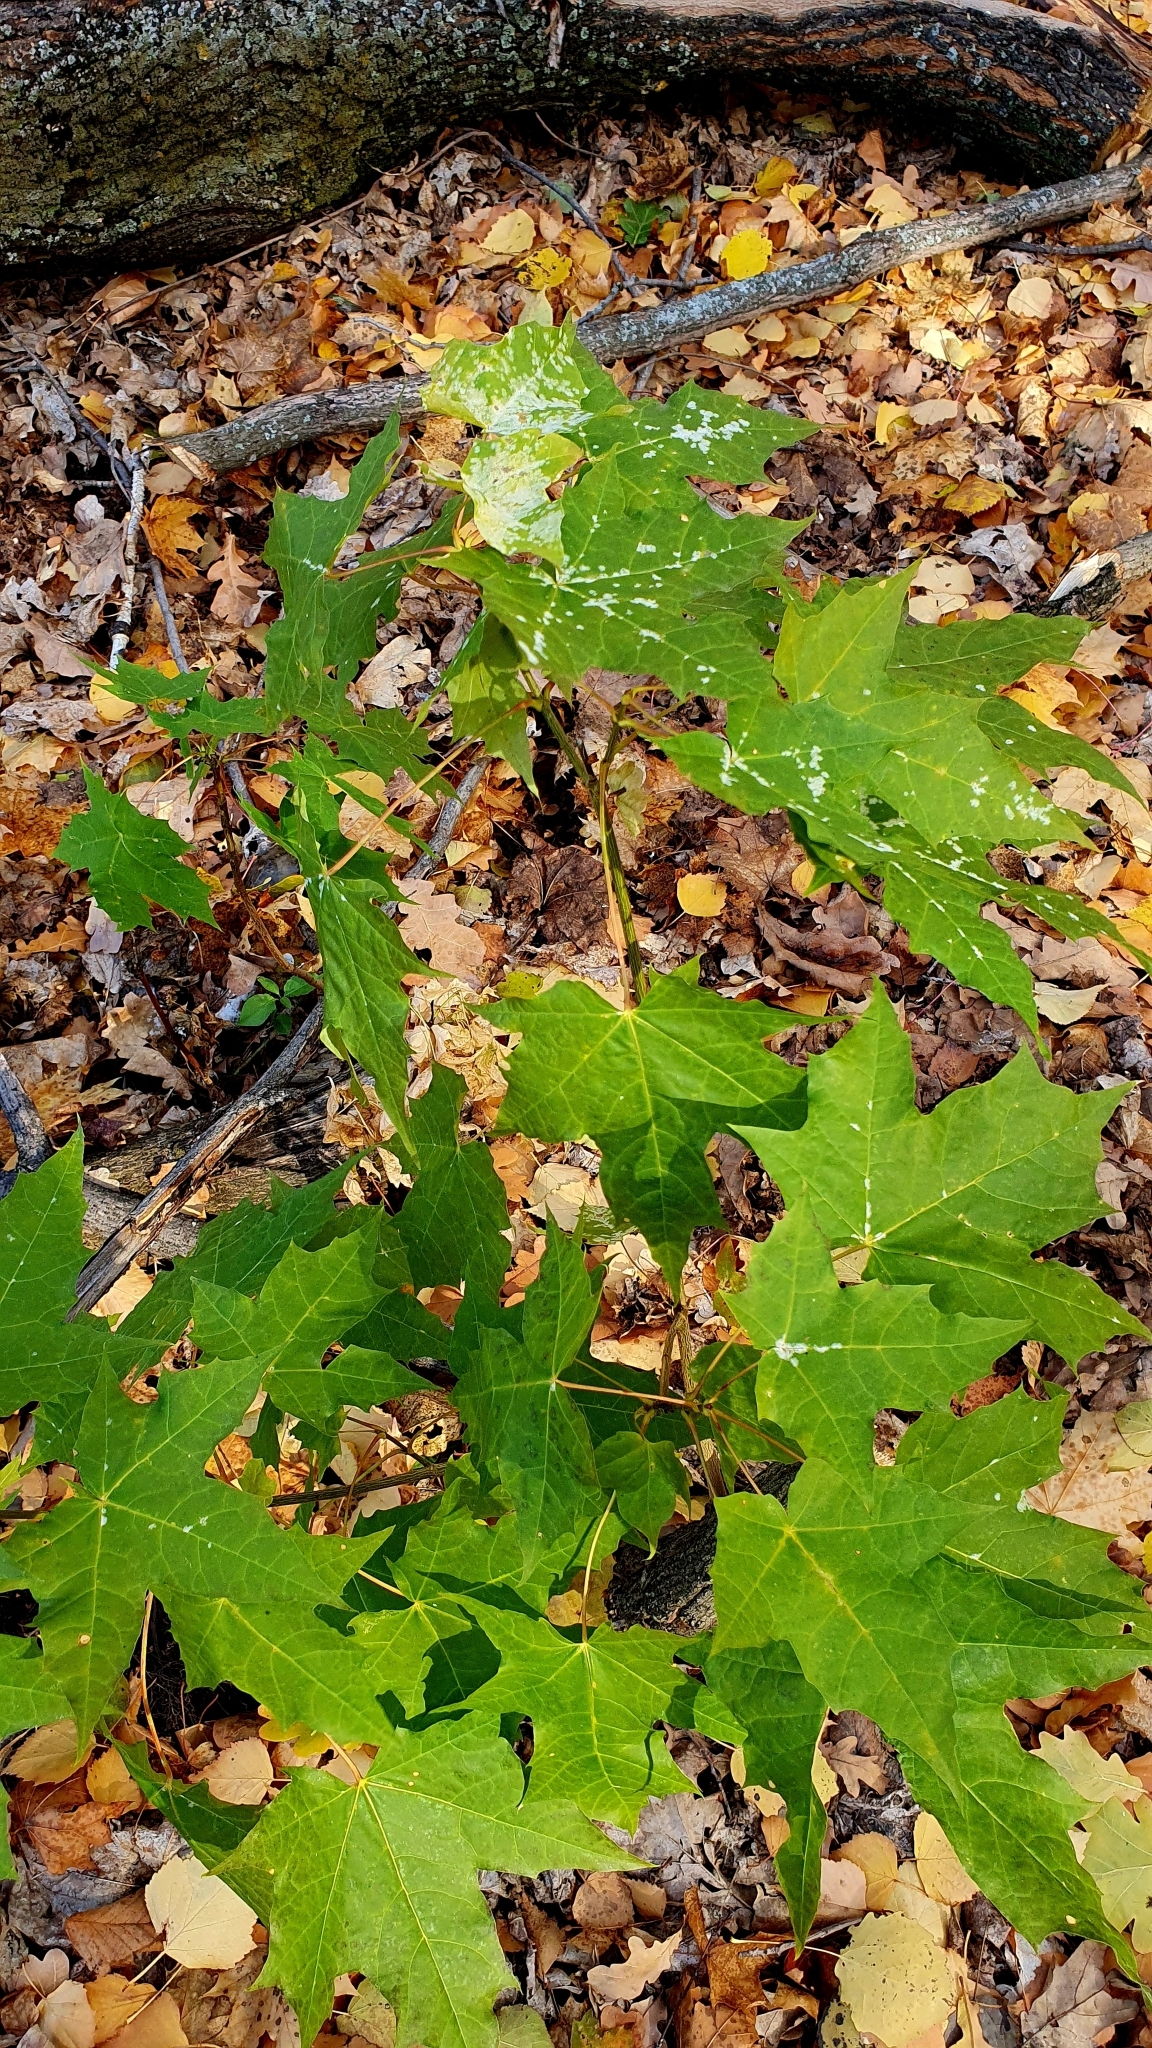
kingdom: Plantae
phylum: Tracheophyta
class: Magnoliopsida
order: Sapindales
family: Sapindaceae
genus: Acer
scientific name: Acer platanoides
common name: Norway maple
